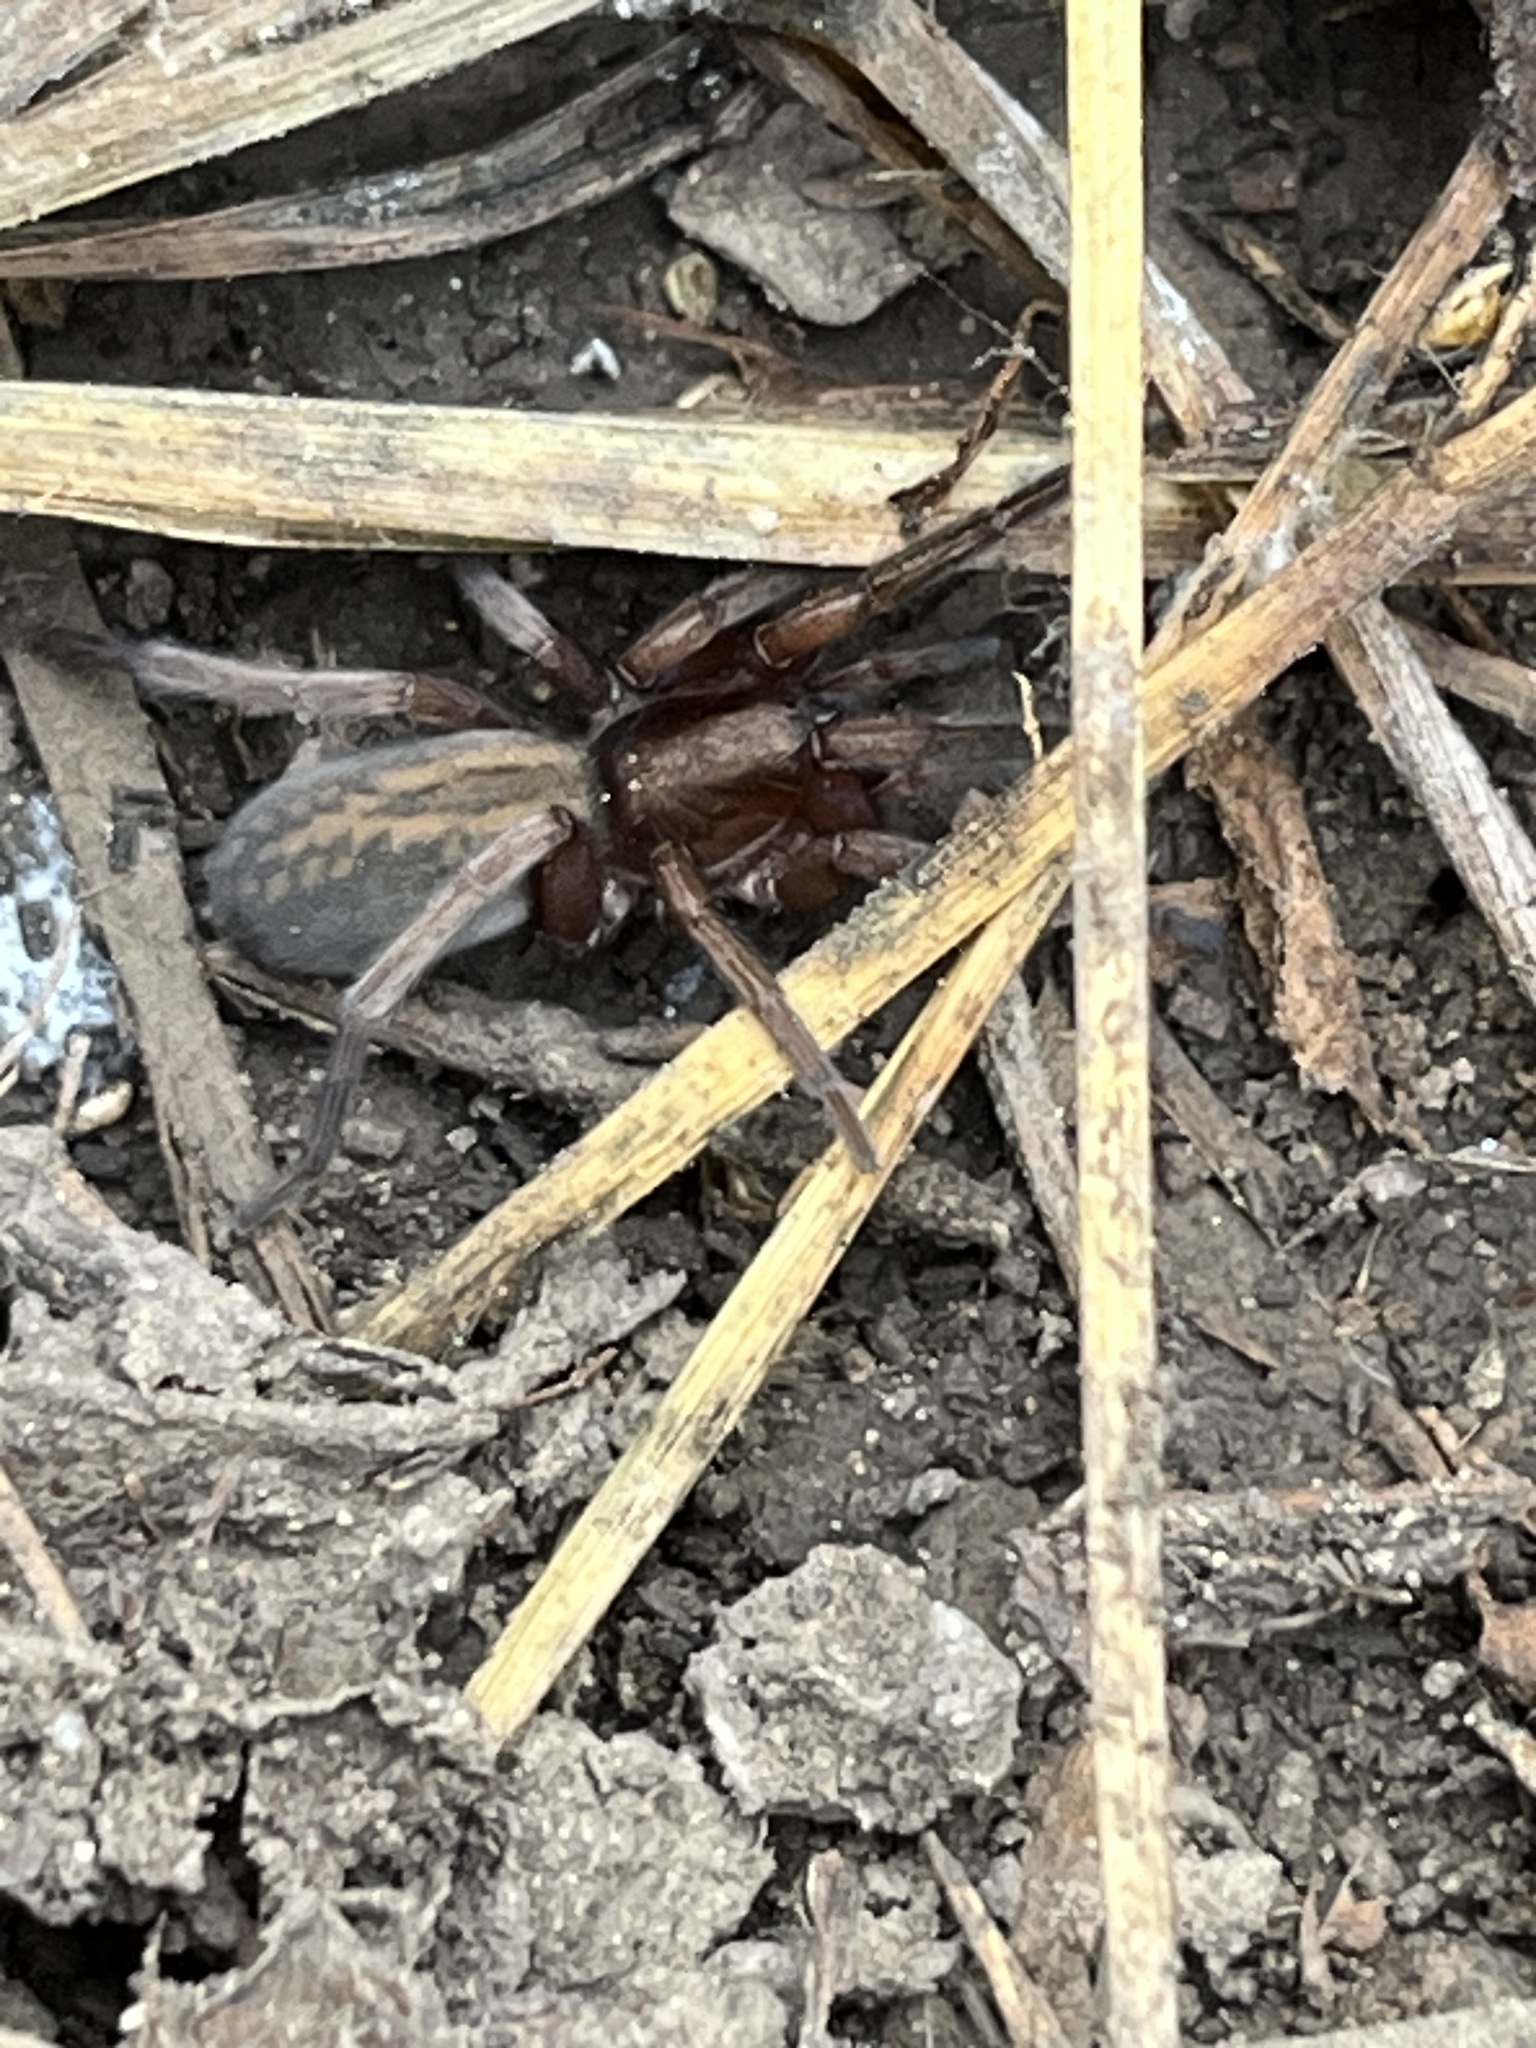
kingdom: Animalia
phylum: Arthropoda
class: Arachnida
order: Araneae
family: Miturgidae
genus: Teminius
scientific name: Teminius affinis
